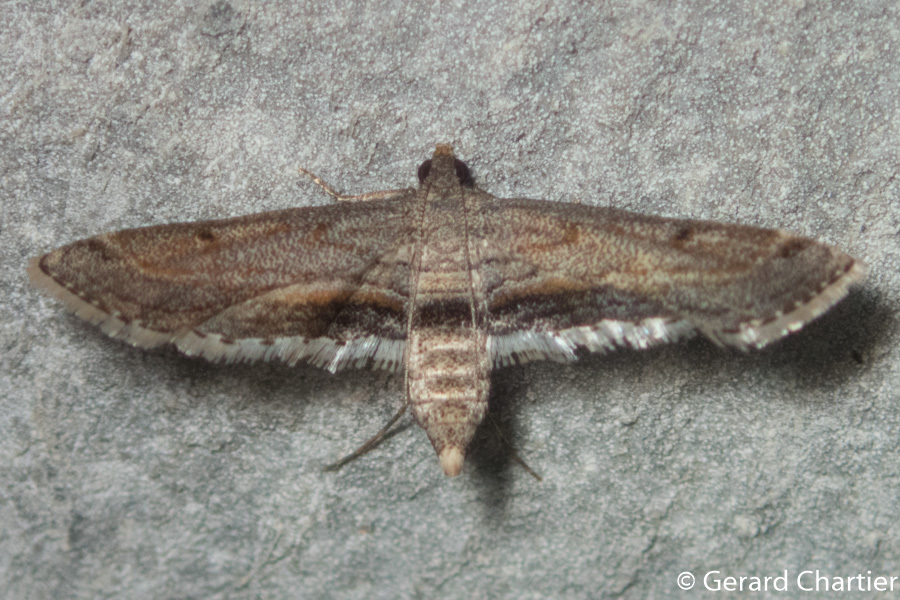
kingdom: Animalia
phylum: Arthropoda
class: Insecta
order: Lepidoptera
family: Crambidae
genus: Parapoynx
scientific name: Parapoynx longialata
